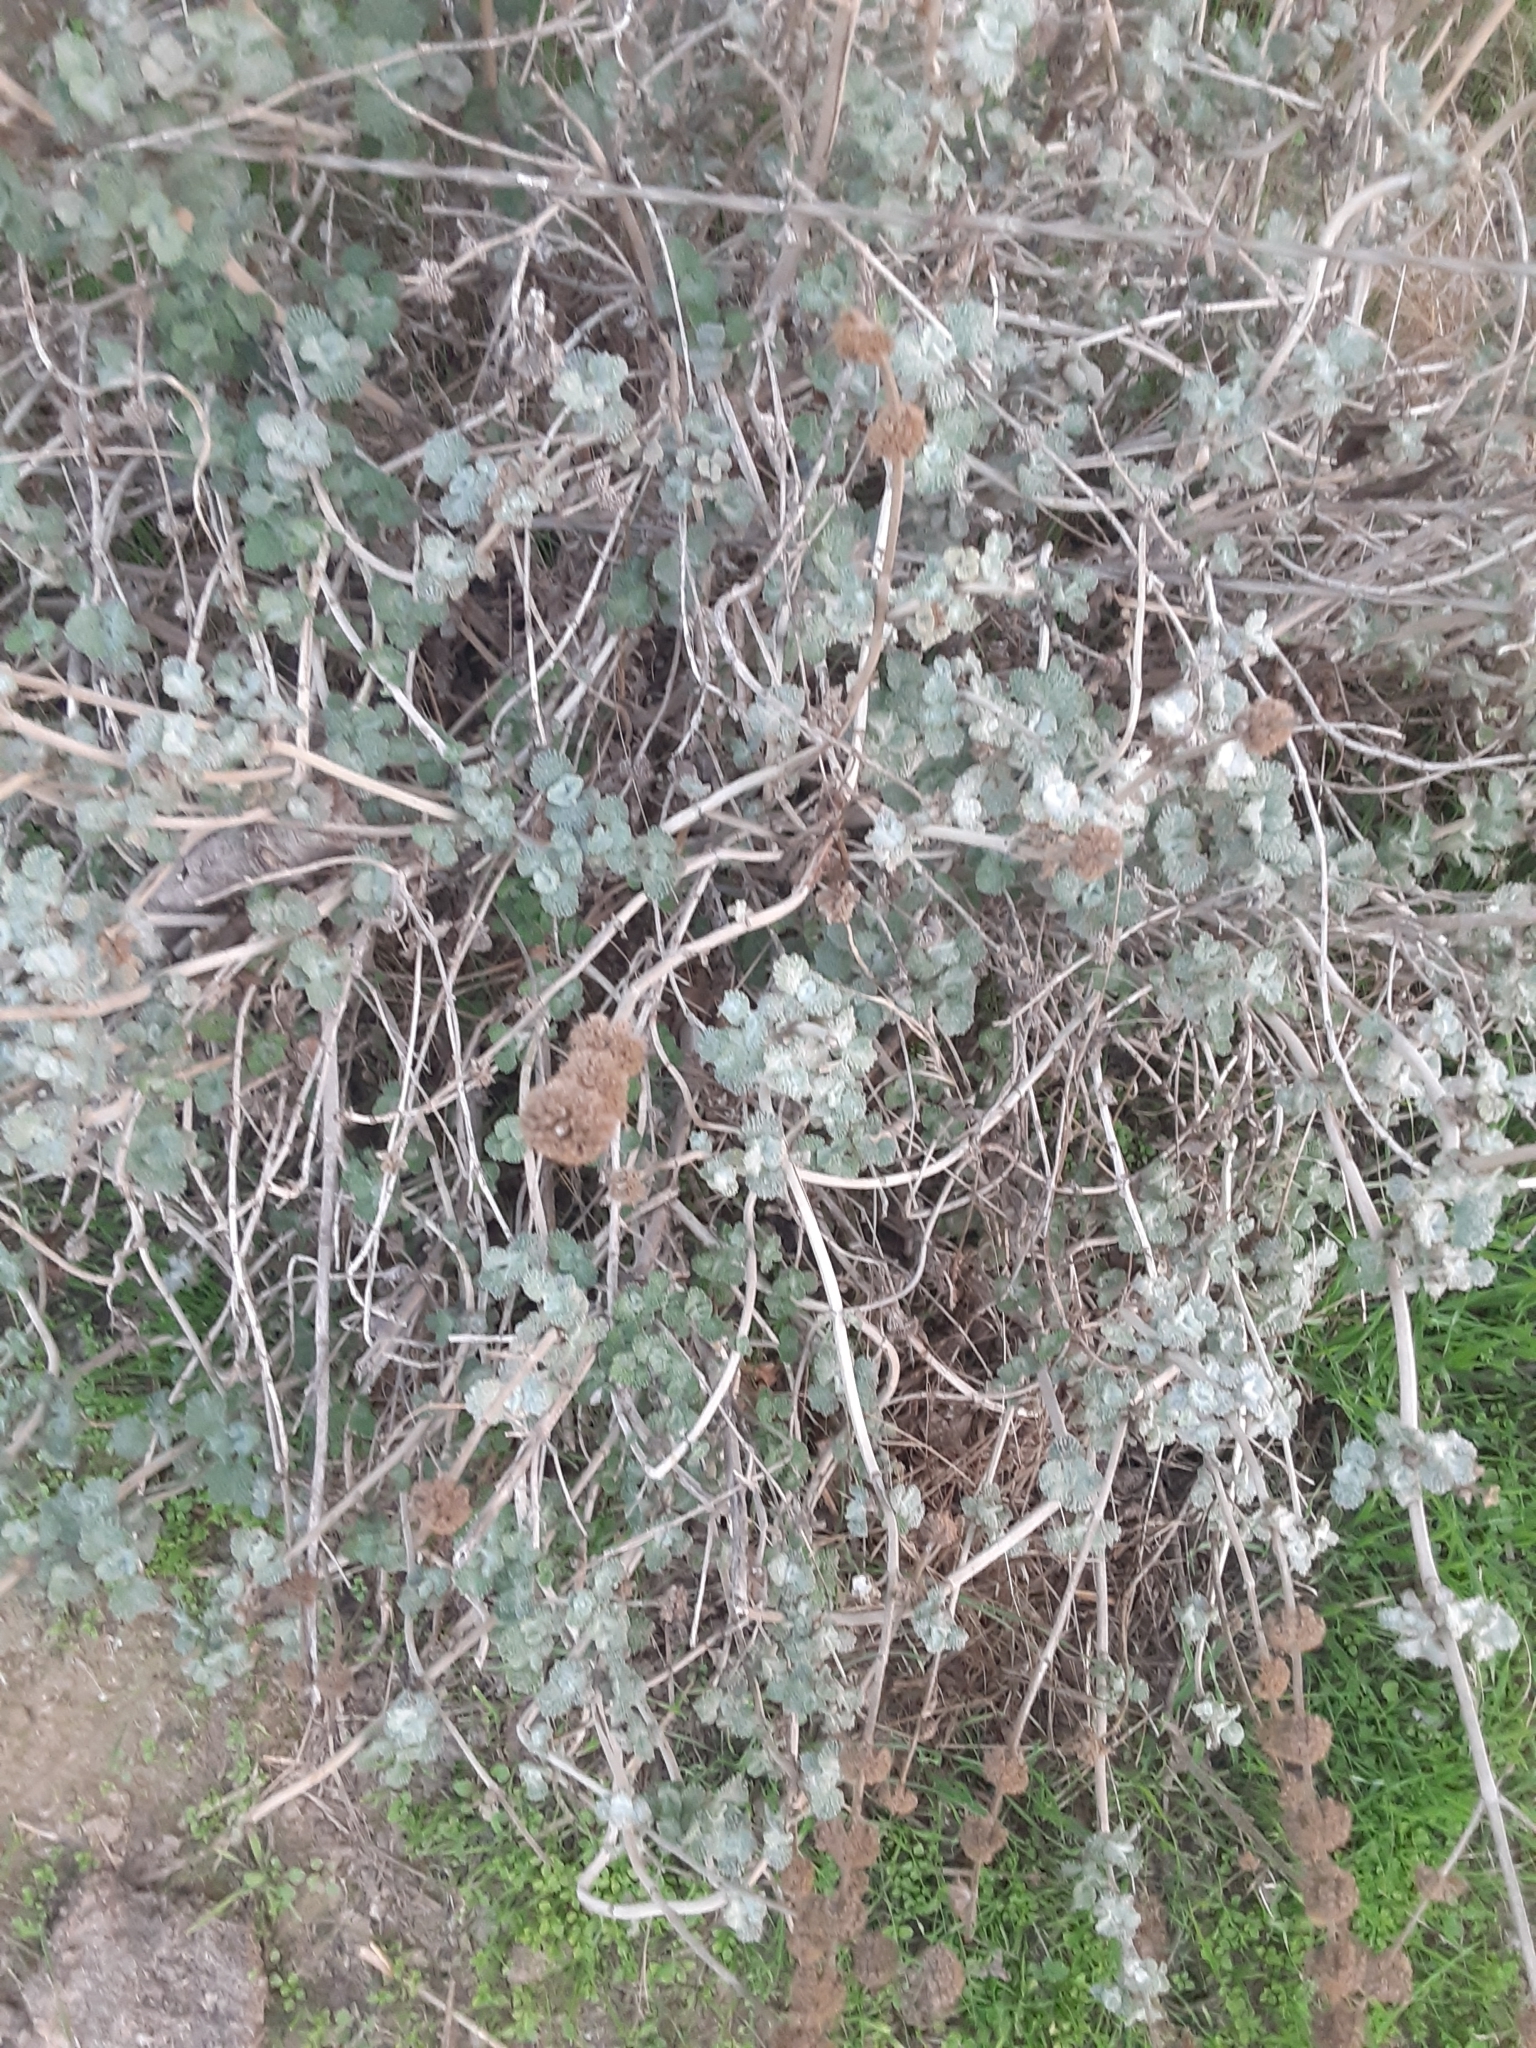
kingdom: Plantae
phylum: Tracheophyta
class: Magnoliopsida
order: Lamiales
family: Lamiaceae
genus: Marrubium
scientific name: Marrubium vulgare
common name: Horehound
